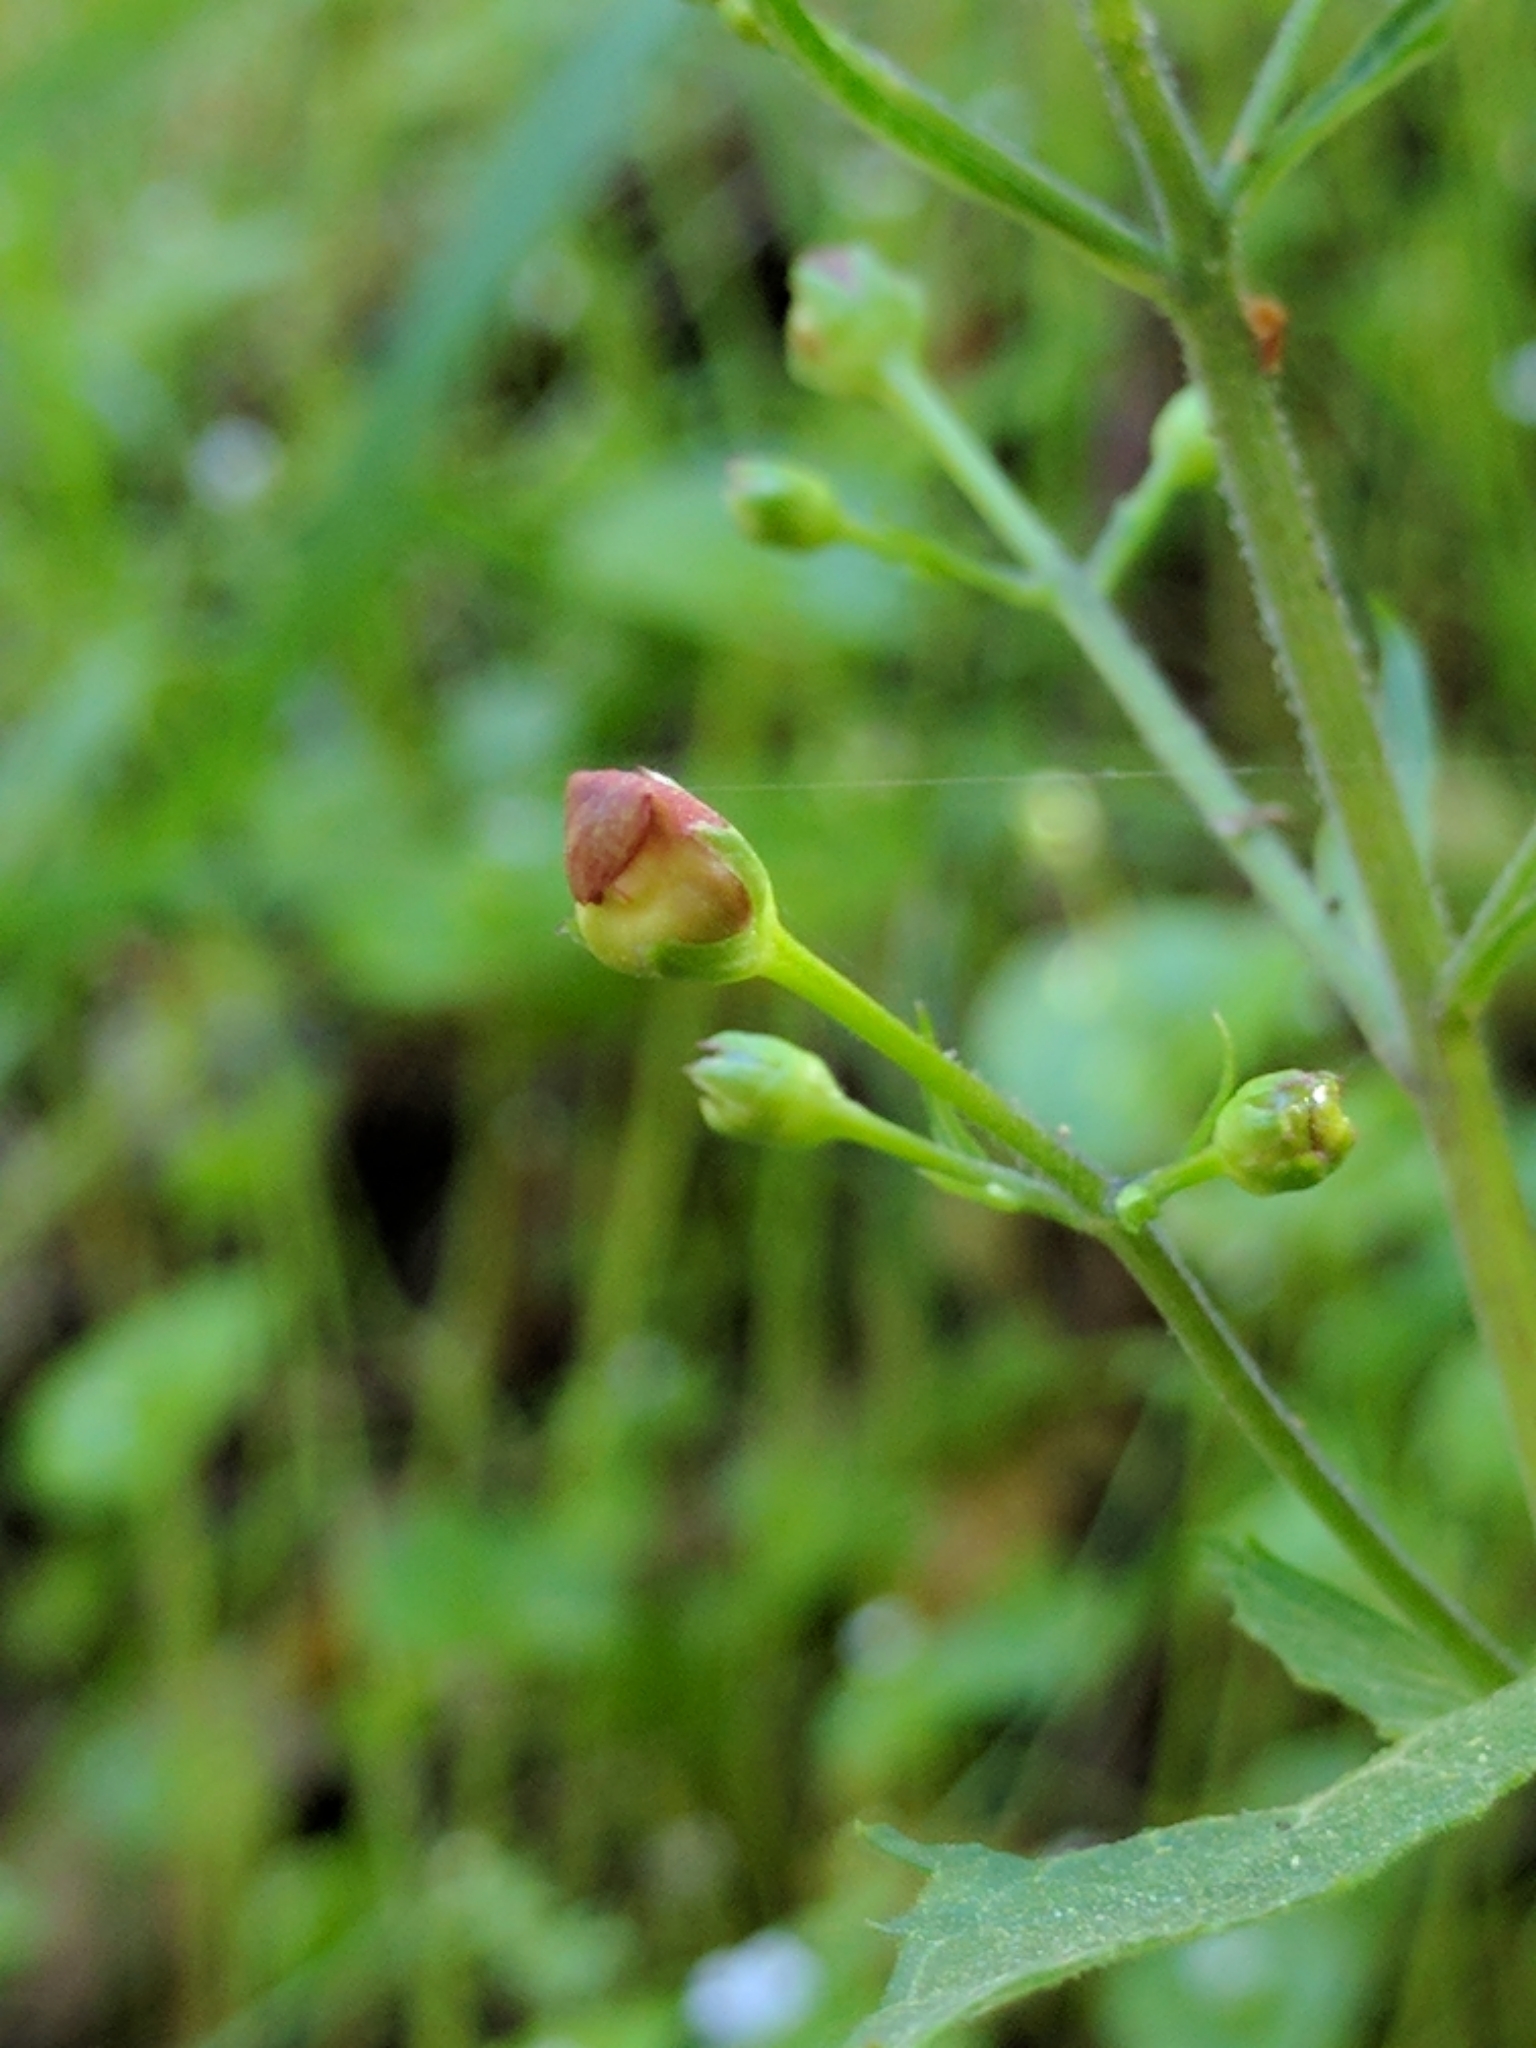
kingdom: Plantae
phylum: Tracheophyta
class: Magnoliopsida
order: Lamiales
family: Scrophulariaceae
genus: Scrophularia
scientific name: Scrophularia californica
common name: California figwort
